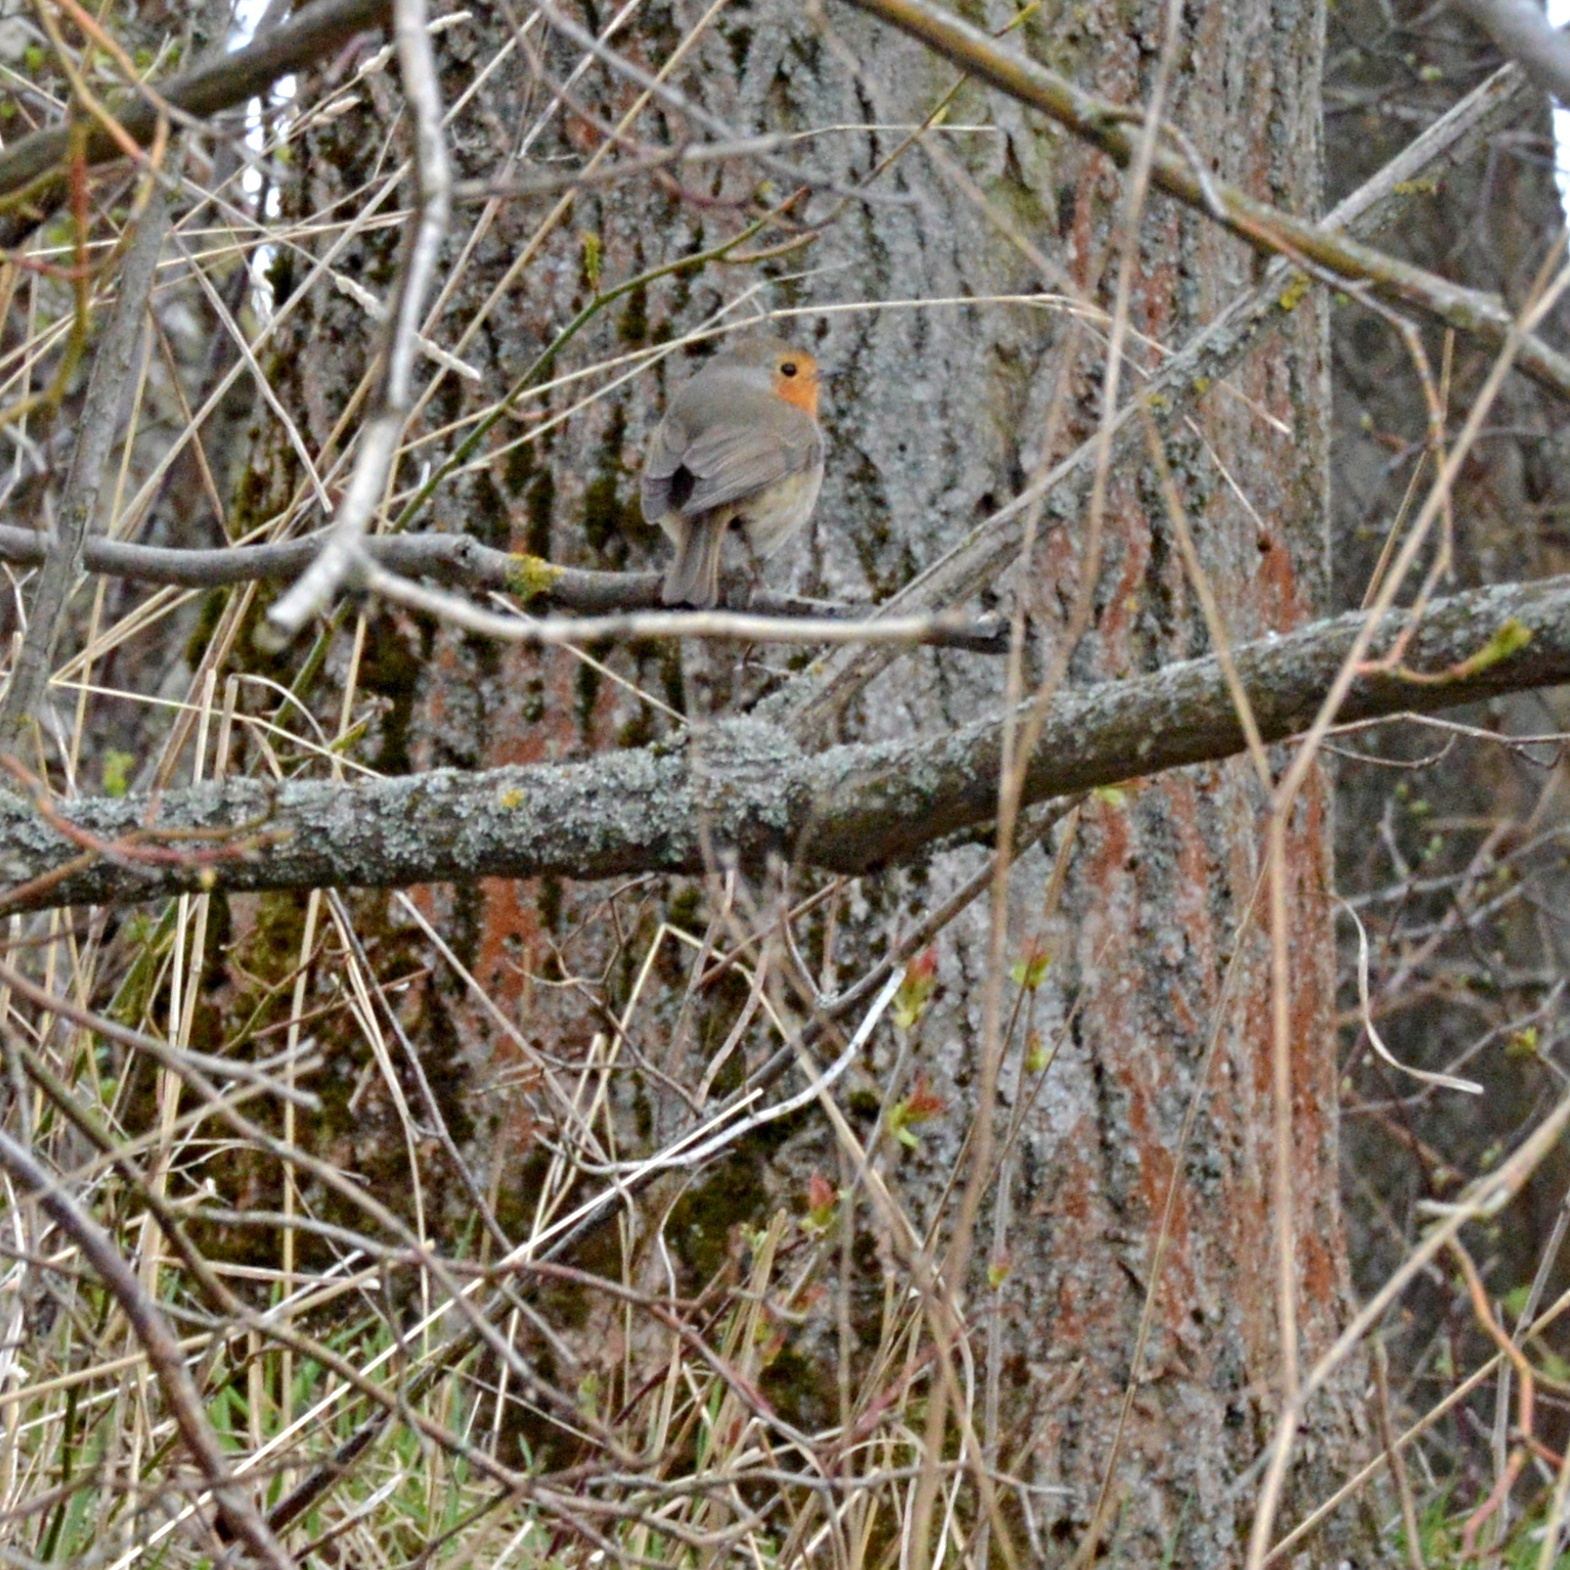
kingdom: Animalia
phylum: Chordata
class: Aves
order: Passeriformes
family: Muscicapidae
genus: Erithacus
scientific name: Erithacus rubecula
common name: European robin
